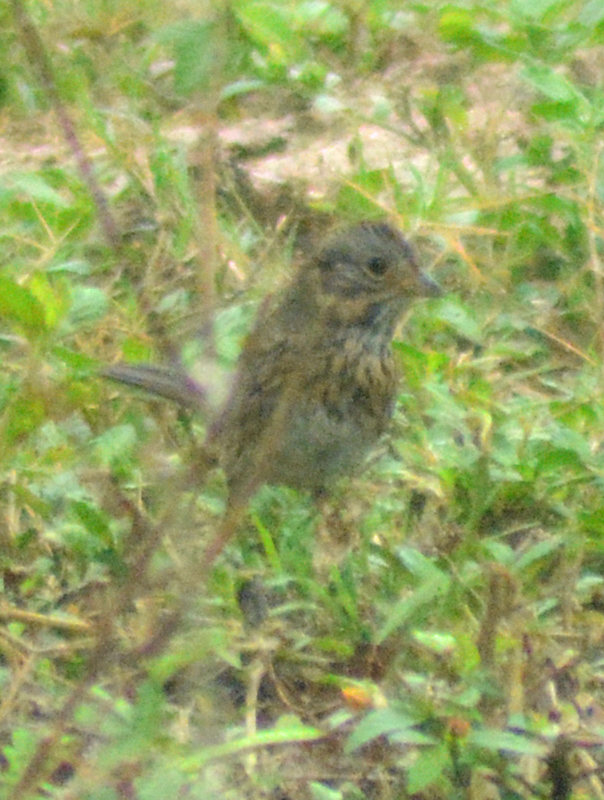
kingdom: Animalia
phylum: Chordata
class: Aves
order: Passeriformes
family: Passerellidae
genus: Melospiza
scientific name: Melospiza lincolnii
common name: Lincoln's sparrow
